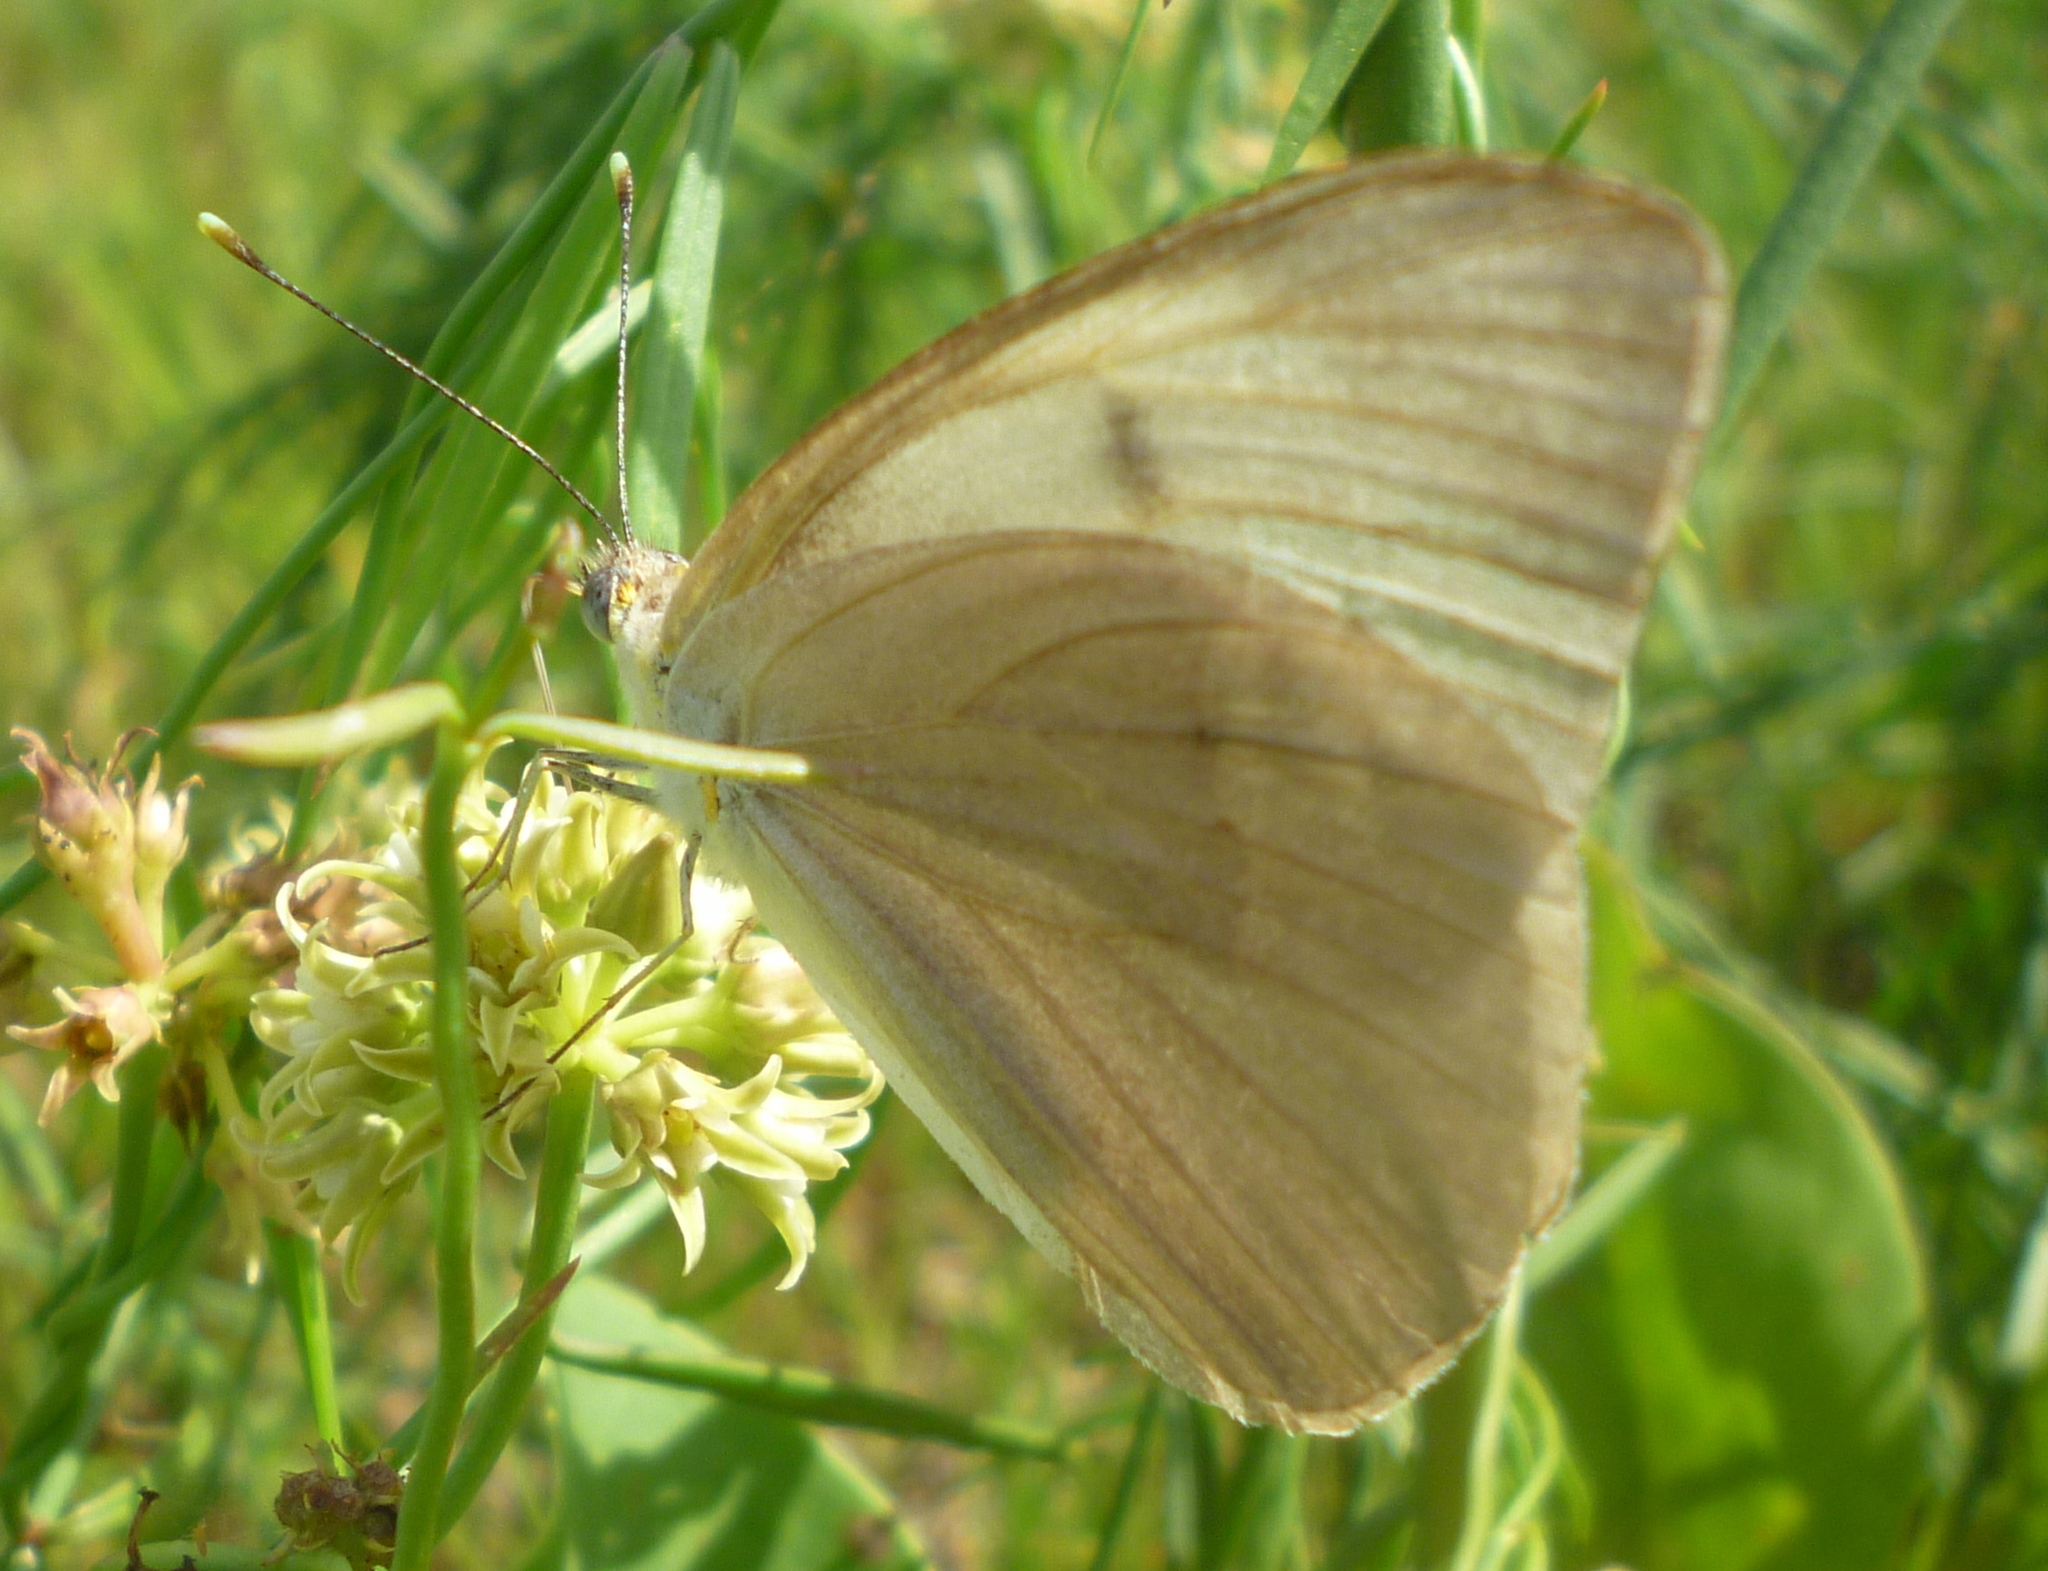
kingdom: Animalia
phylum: Arthropoda
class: Insecta
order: Lepidoptera
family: Pieridae
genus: Ascia
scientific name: Ascia monuste
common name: Great southern white
